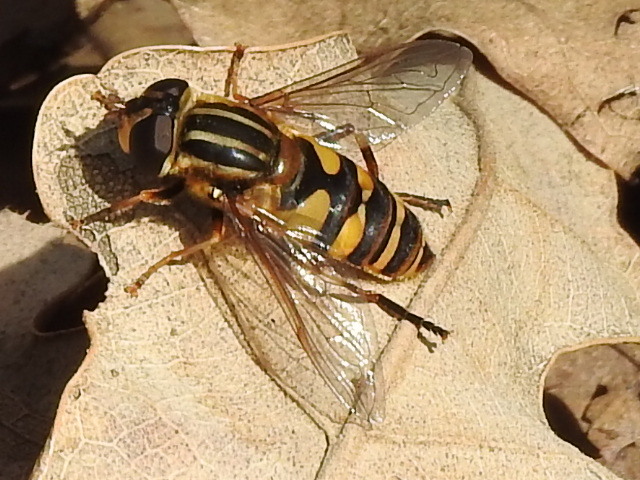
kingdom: Animalia
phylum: Arthropoda
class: Insecta
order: Diptera
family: Syrphidae
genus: Helophilus
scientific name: Helophilus fasciatus
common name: Narrow-headed marsh fly
